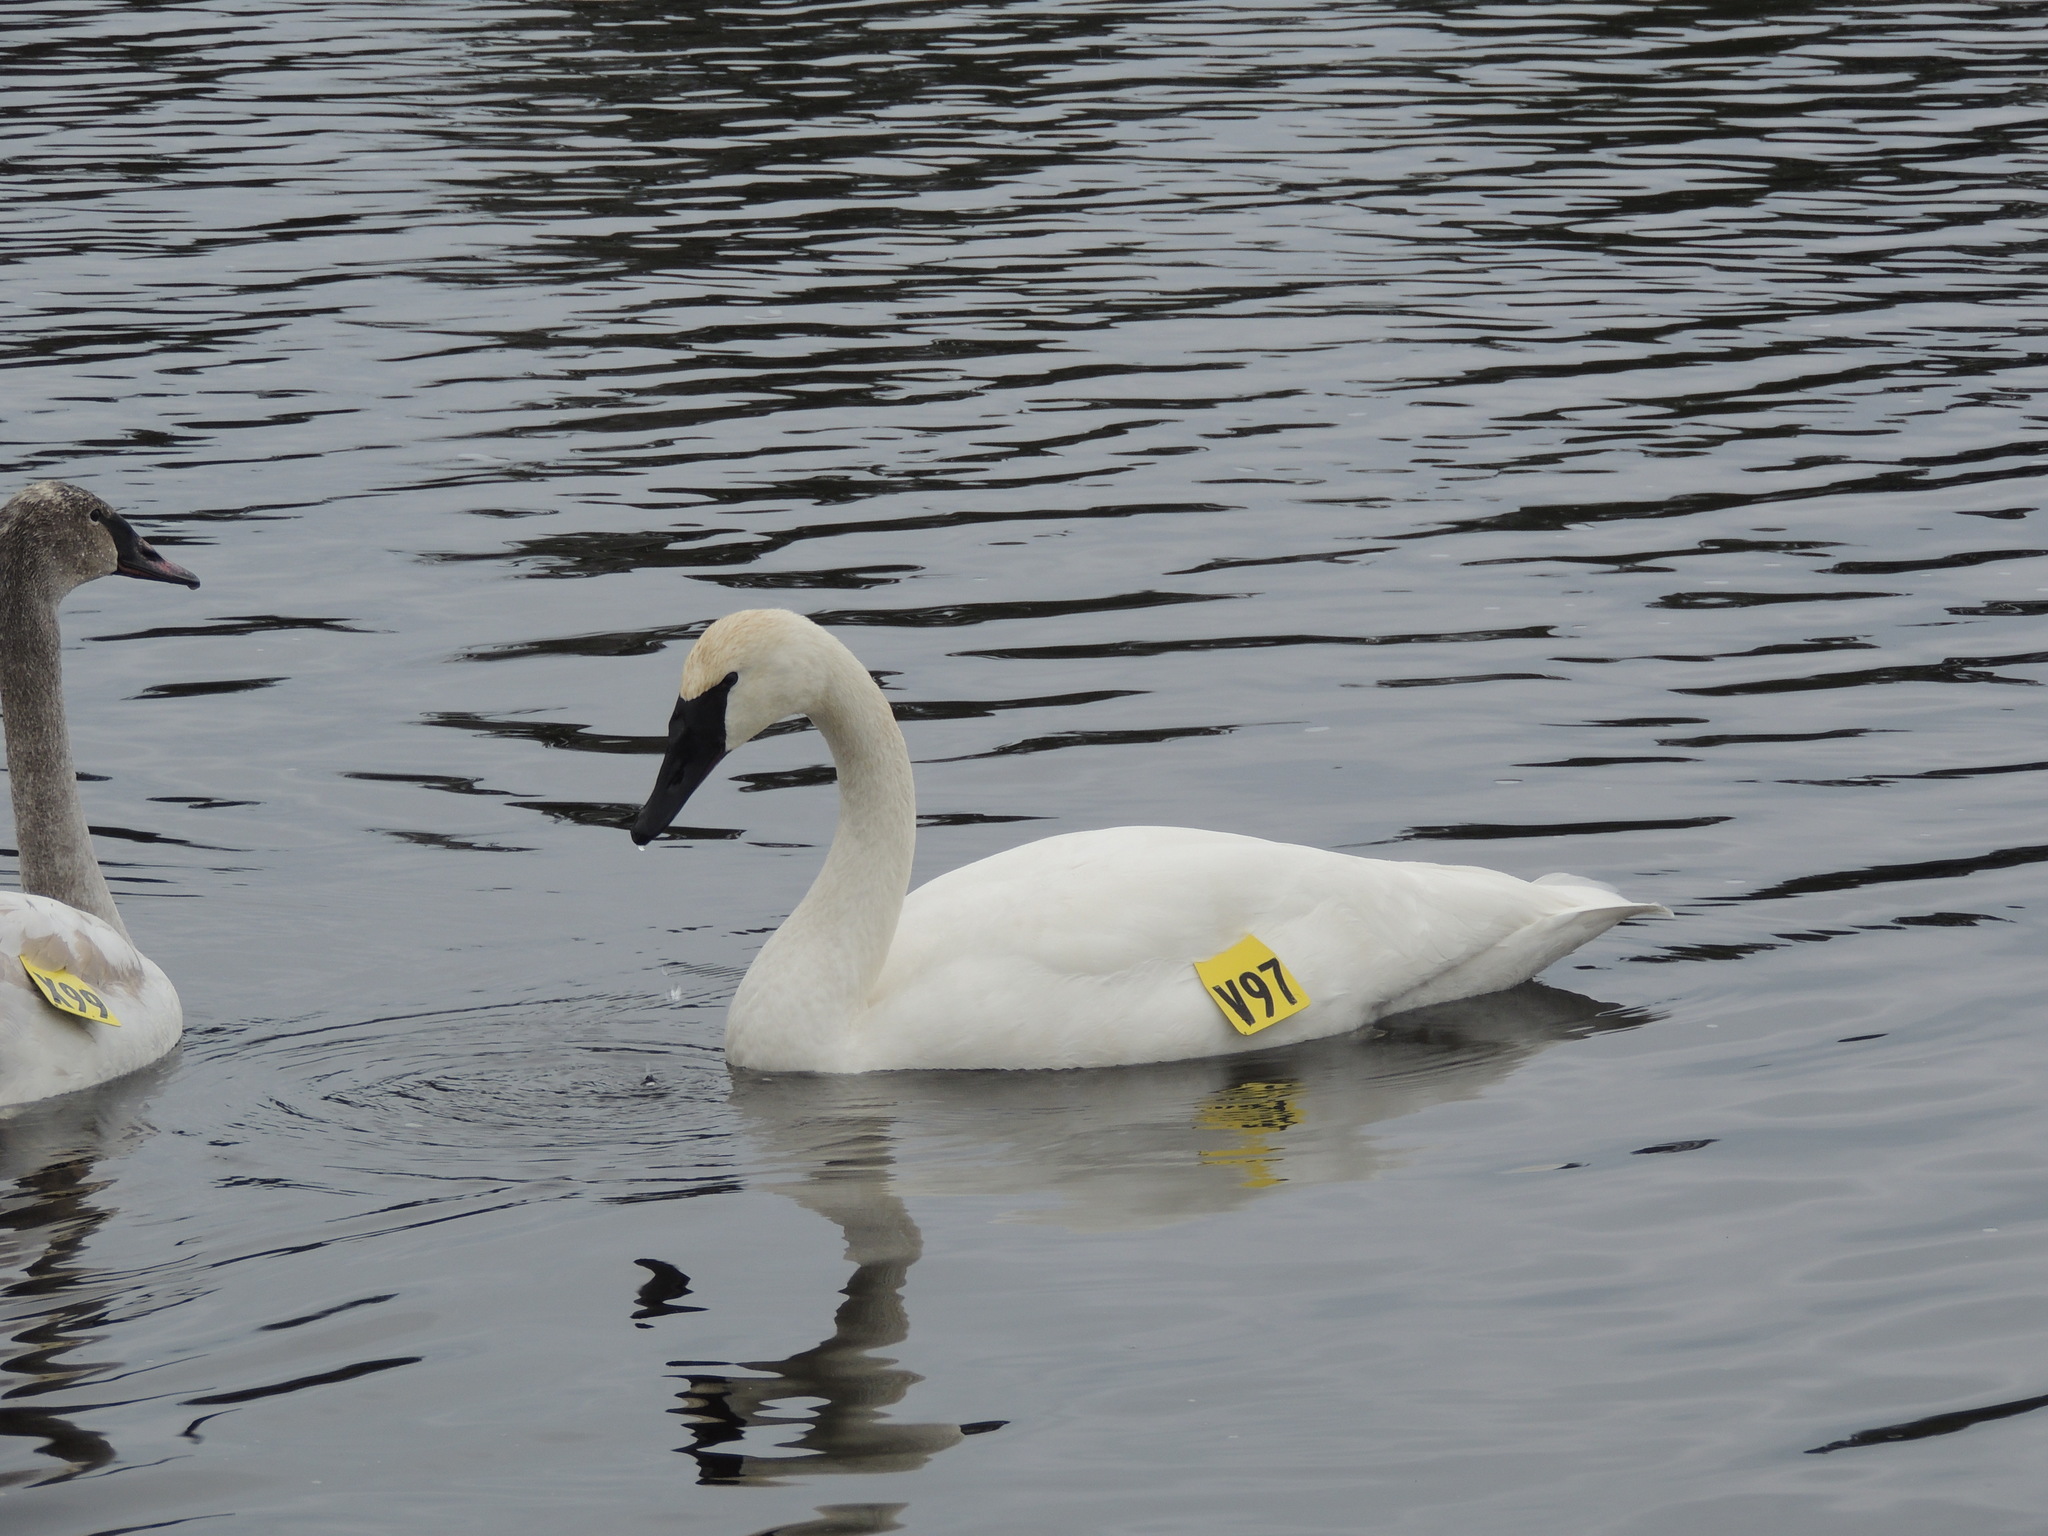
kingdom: Animalia
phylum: Chordata
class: Aves
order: Anseriformes
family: Anatidae
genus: Cygnus
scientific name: Cygnus buccinator
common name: Trumpeter swan
